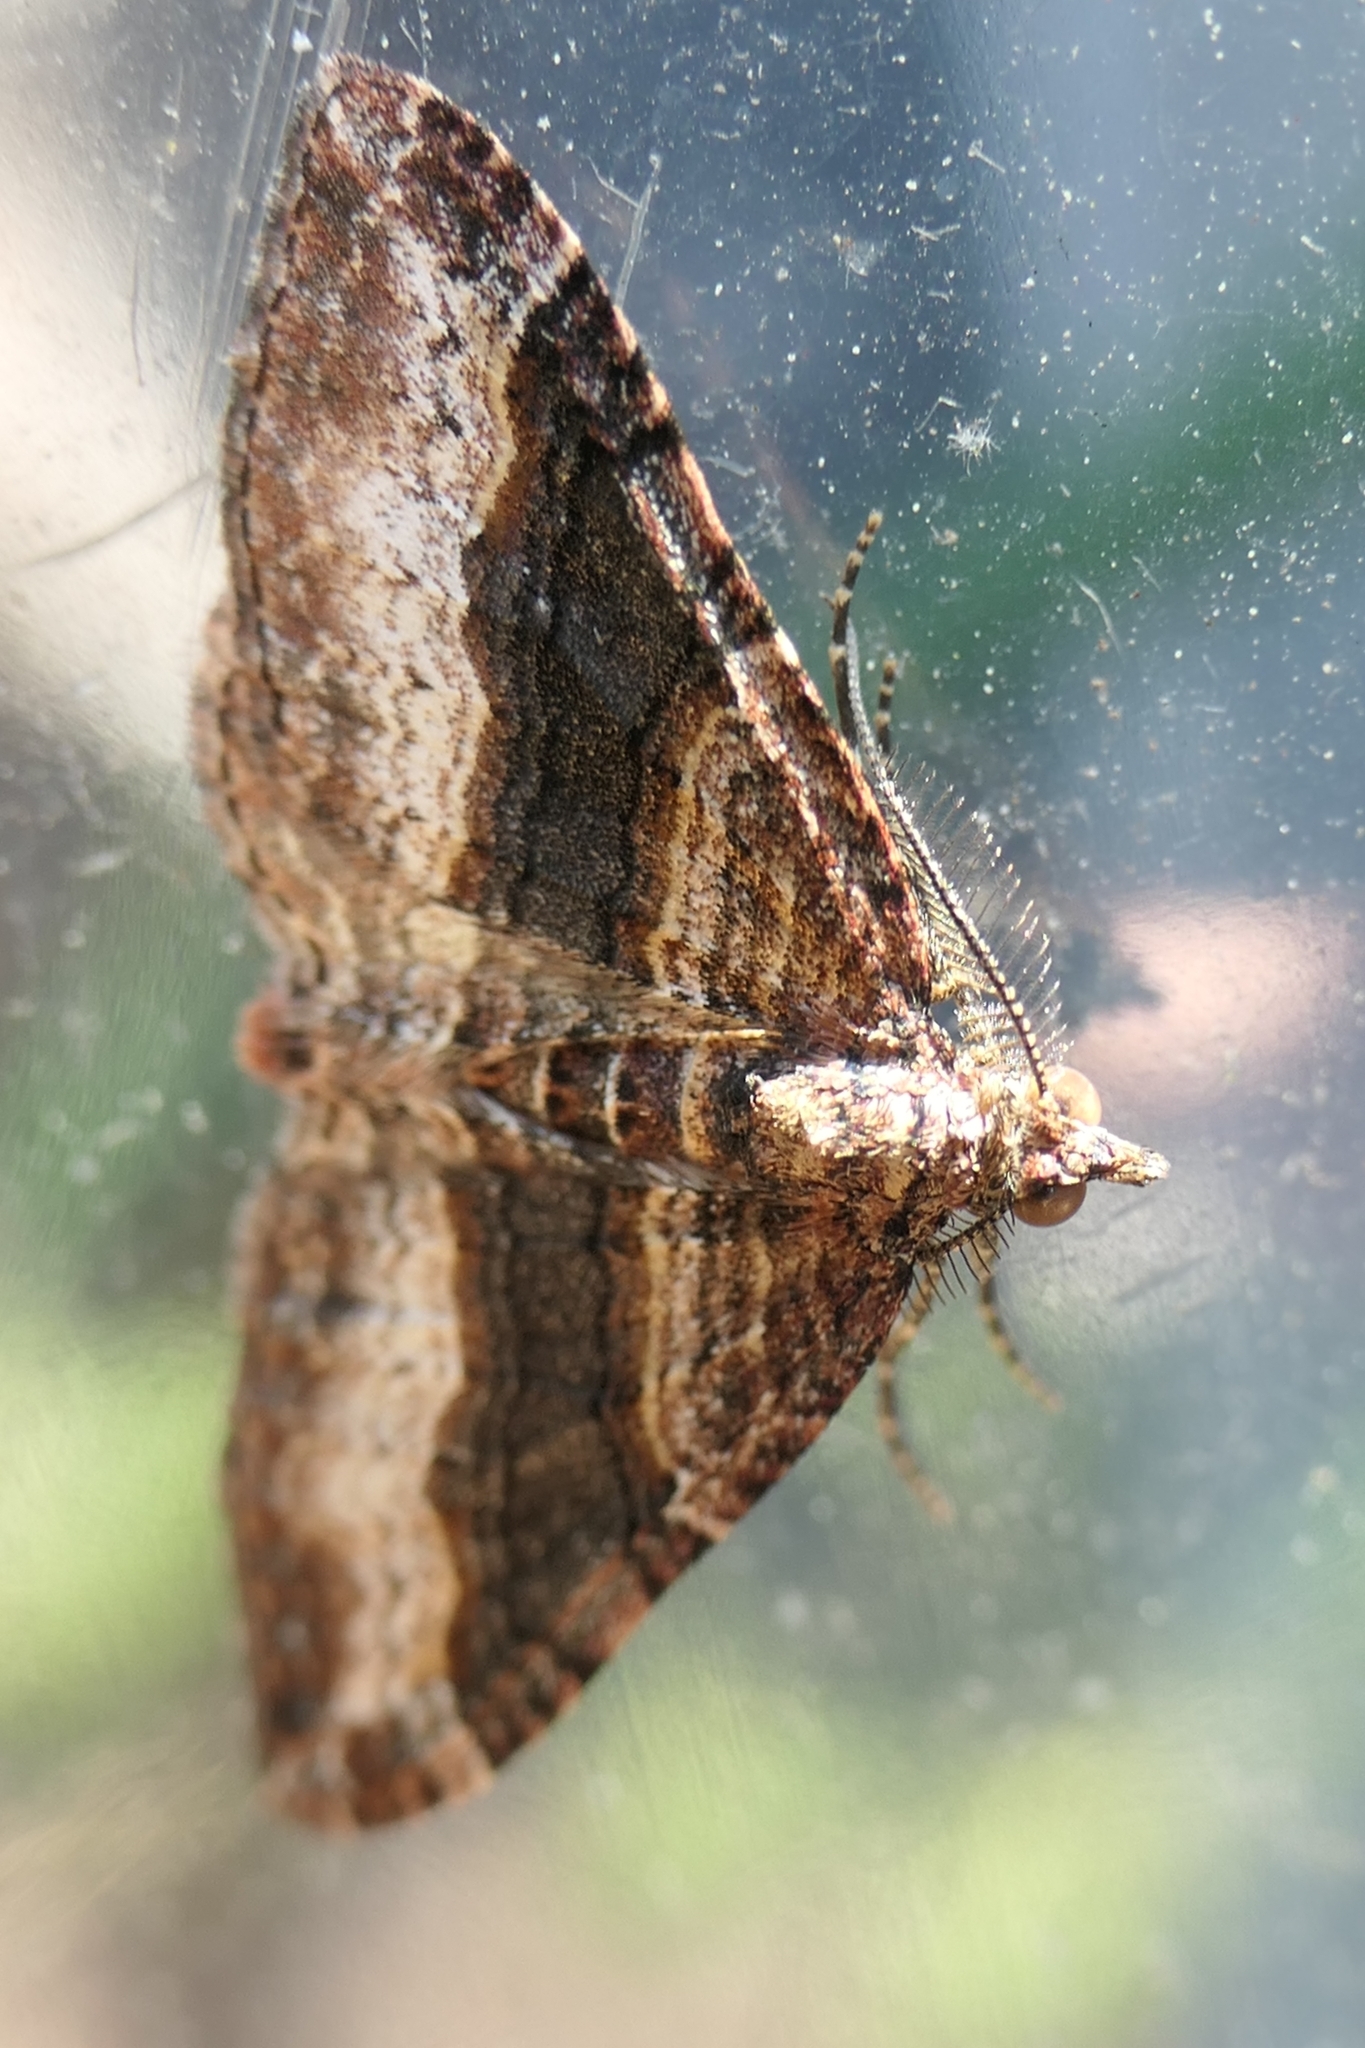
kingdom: Animalia
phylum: Arthropoda
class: Insecta
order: Lepidoptera
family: Geometridae
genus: Epyaxa
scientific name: Epyaxa lucidata
